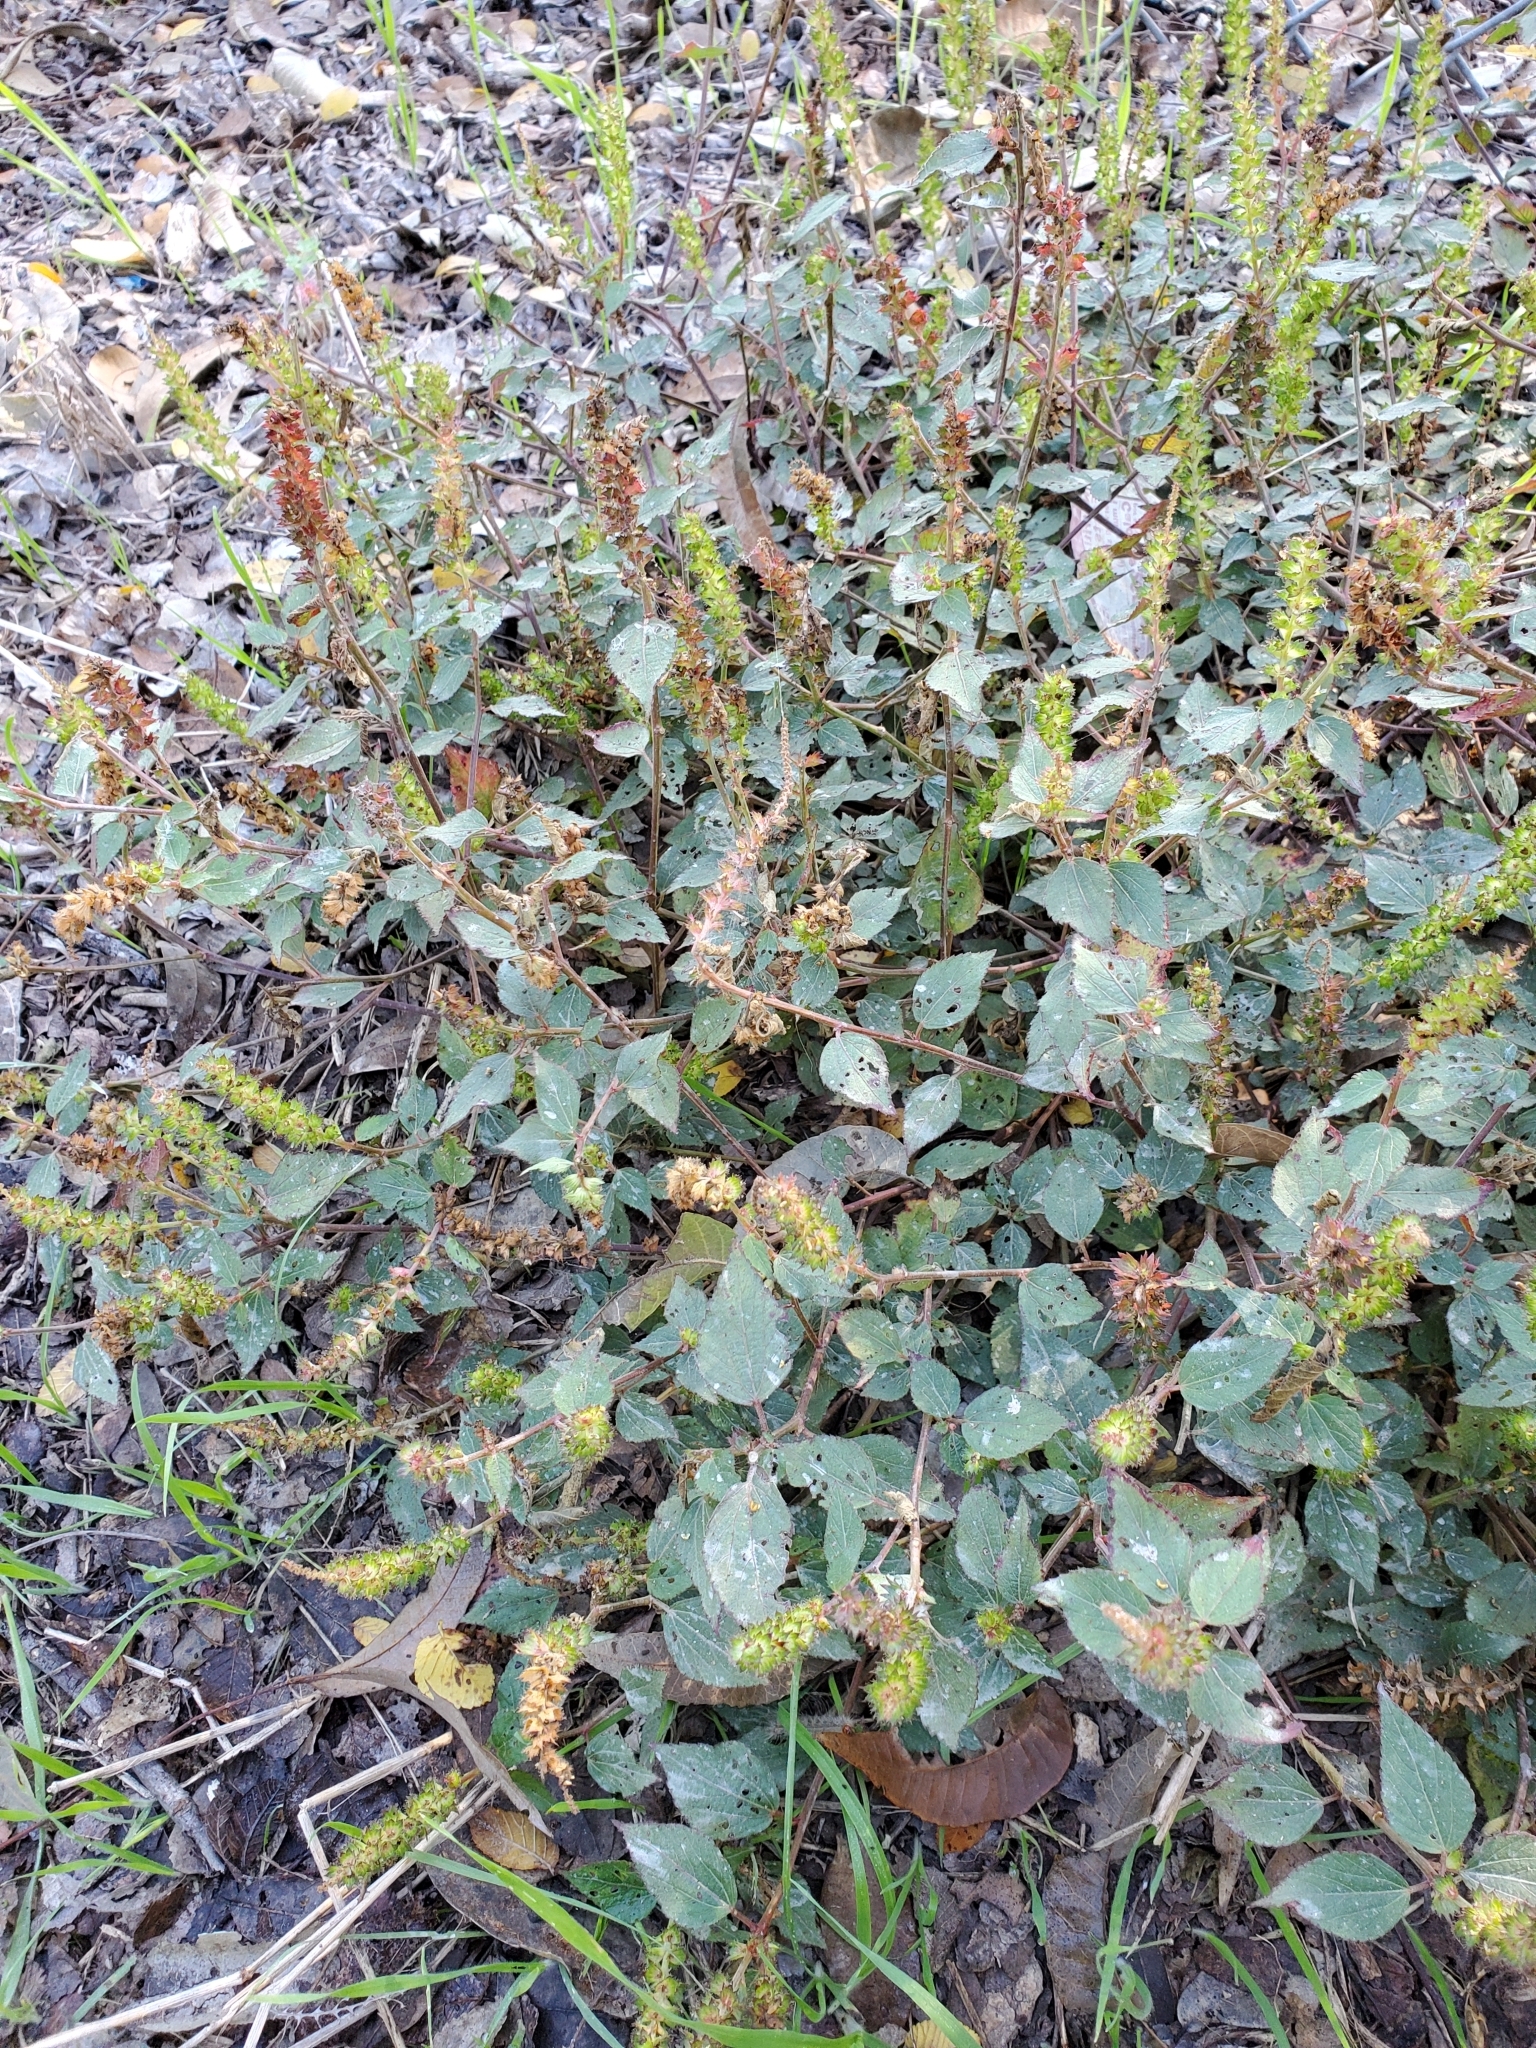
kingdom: Plantae
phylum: Tracheophyta
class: Magnoliopsida
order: Malpighiales
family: Euphorbiaceae
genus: Acalypha
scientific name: Acalypha phleoides
